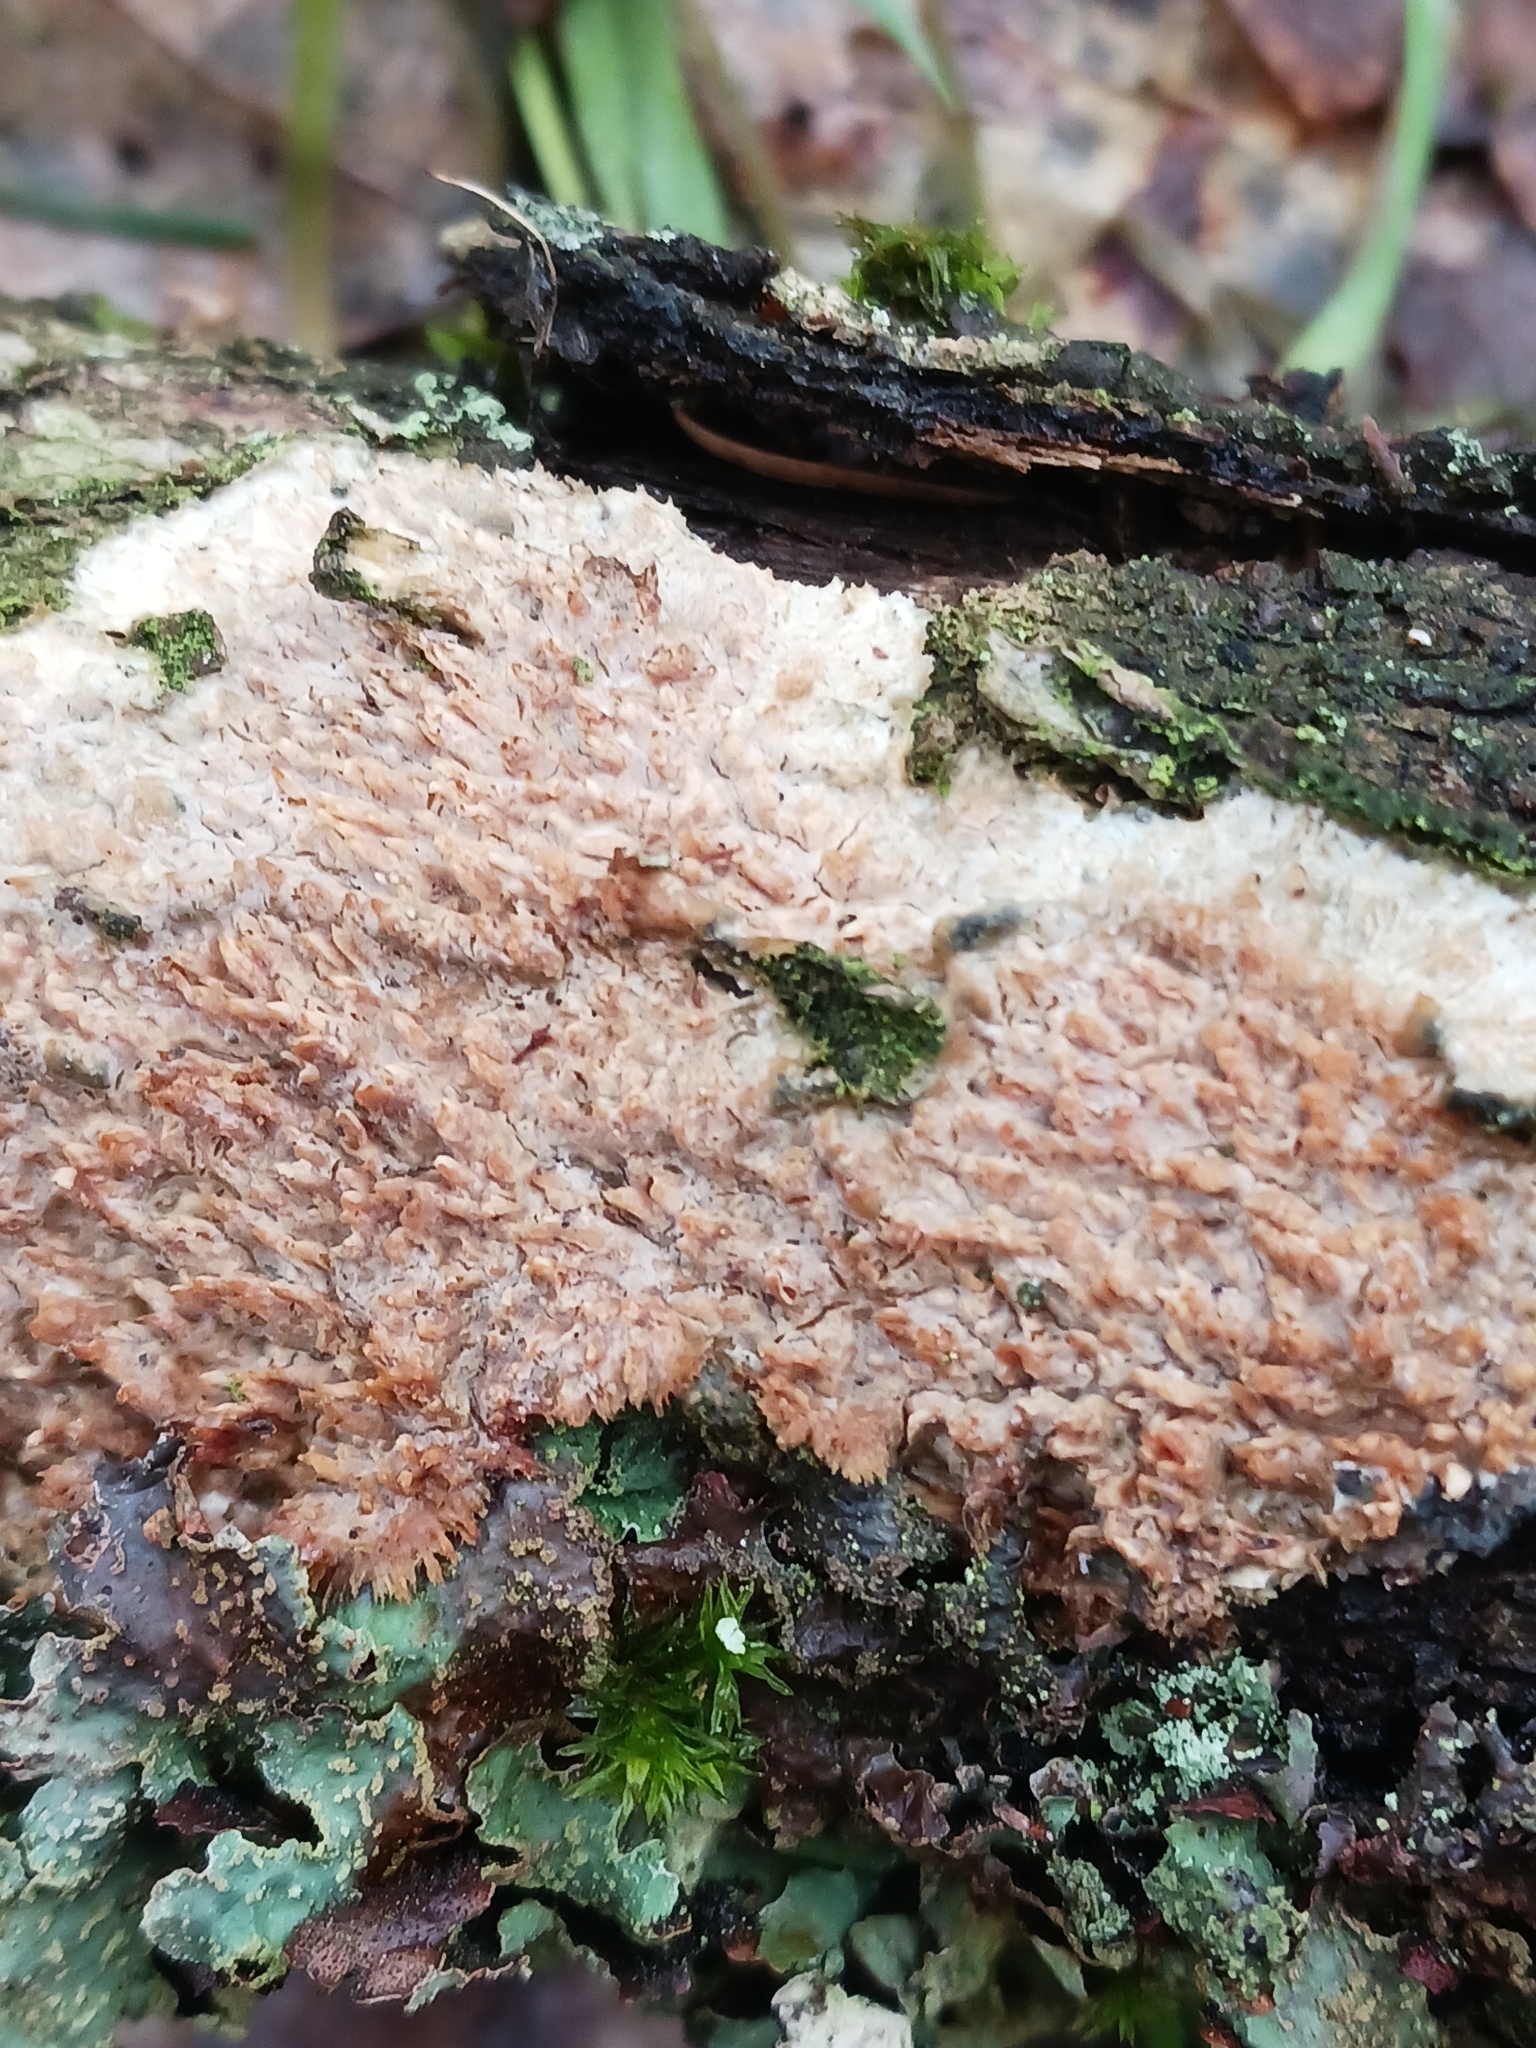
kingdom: Fungi
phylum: Basidiomycota
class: Agaricomycetes
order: Agaricales
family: Radulomycetaceae
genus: Radulomyces
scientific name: Radulomyces molaris
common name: Oak toothcrust
